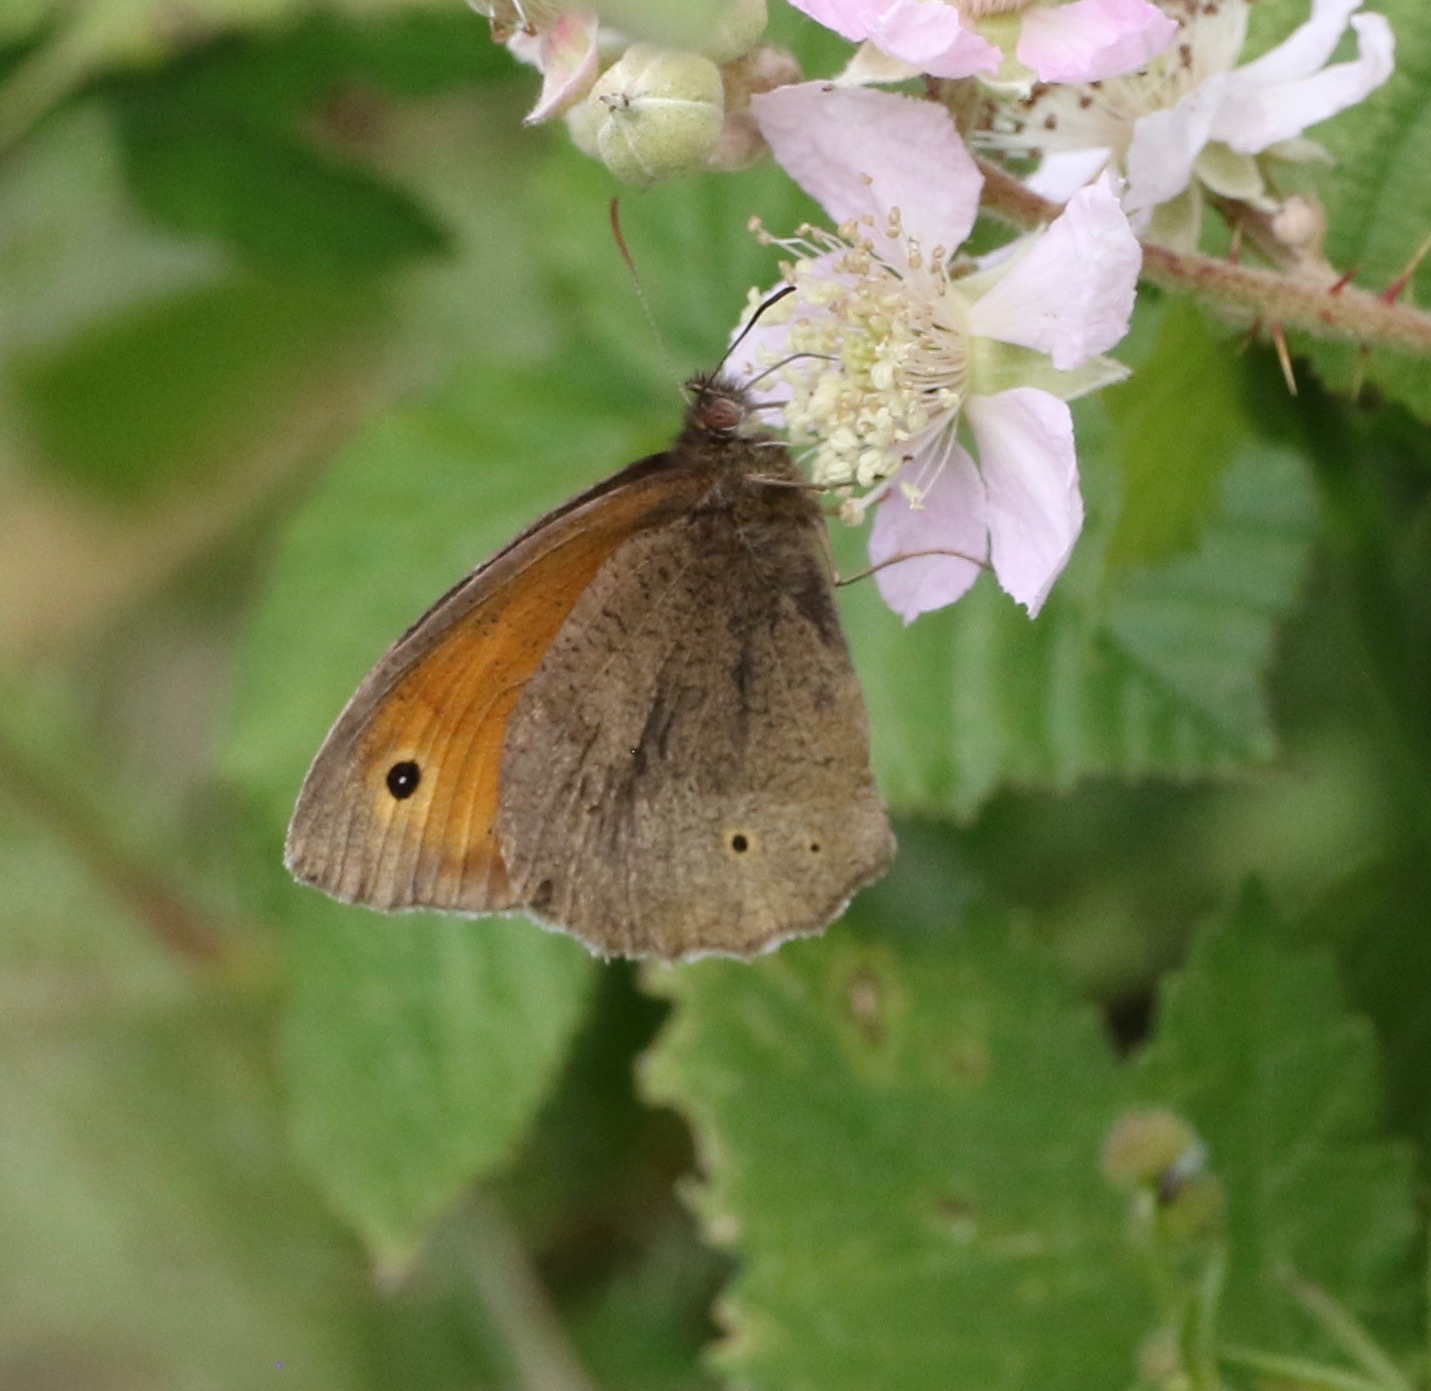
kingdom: Animalia
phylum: Arthropoda
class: Insecta
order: Lepidoptera
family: Nymphalidae
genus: Maniola
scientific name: Maniola jurtina
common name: Meadow brown
